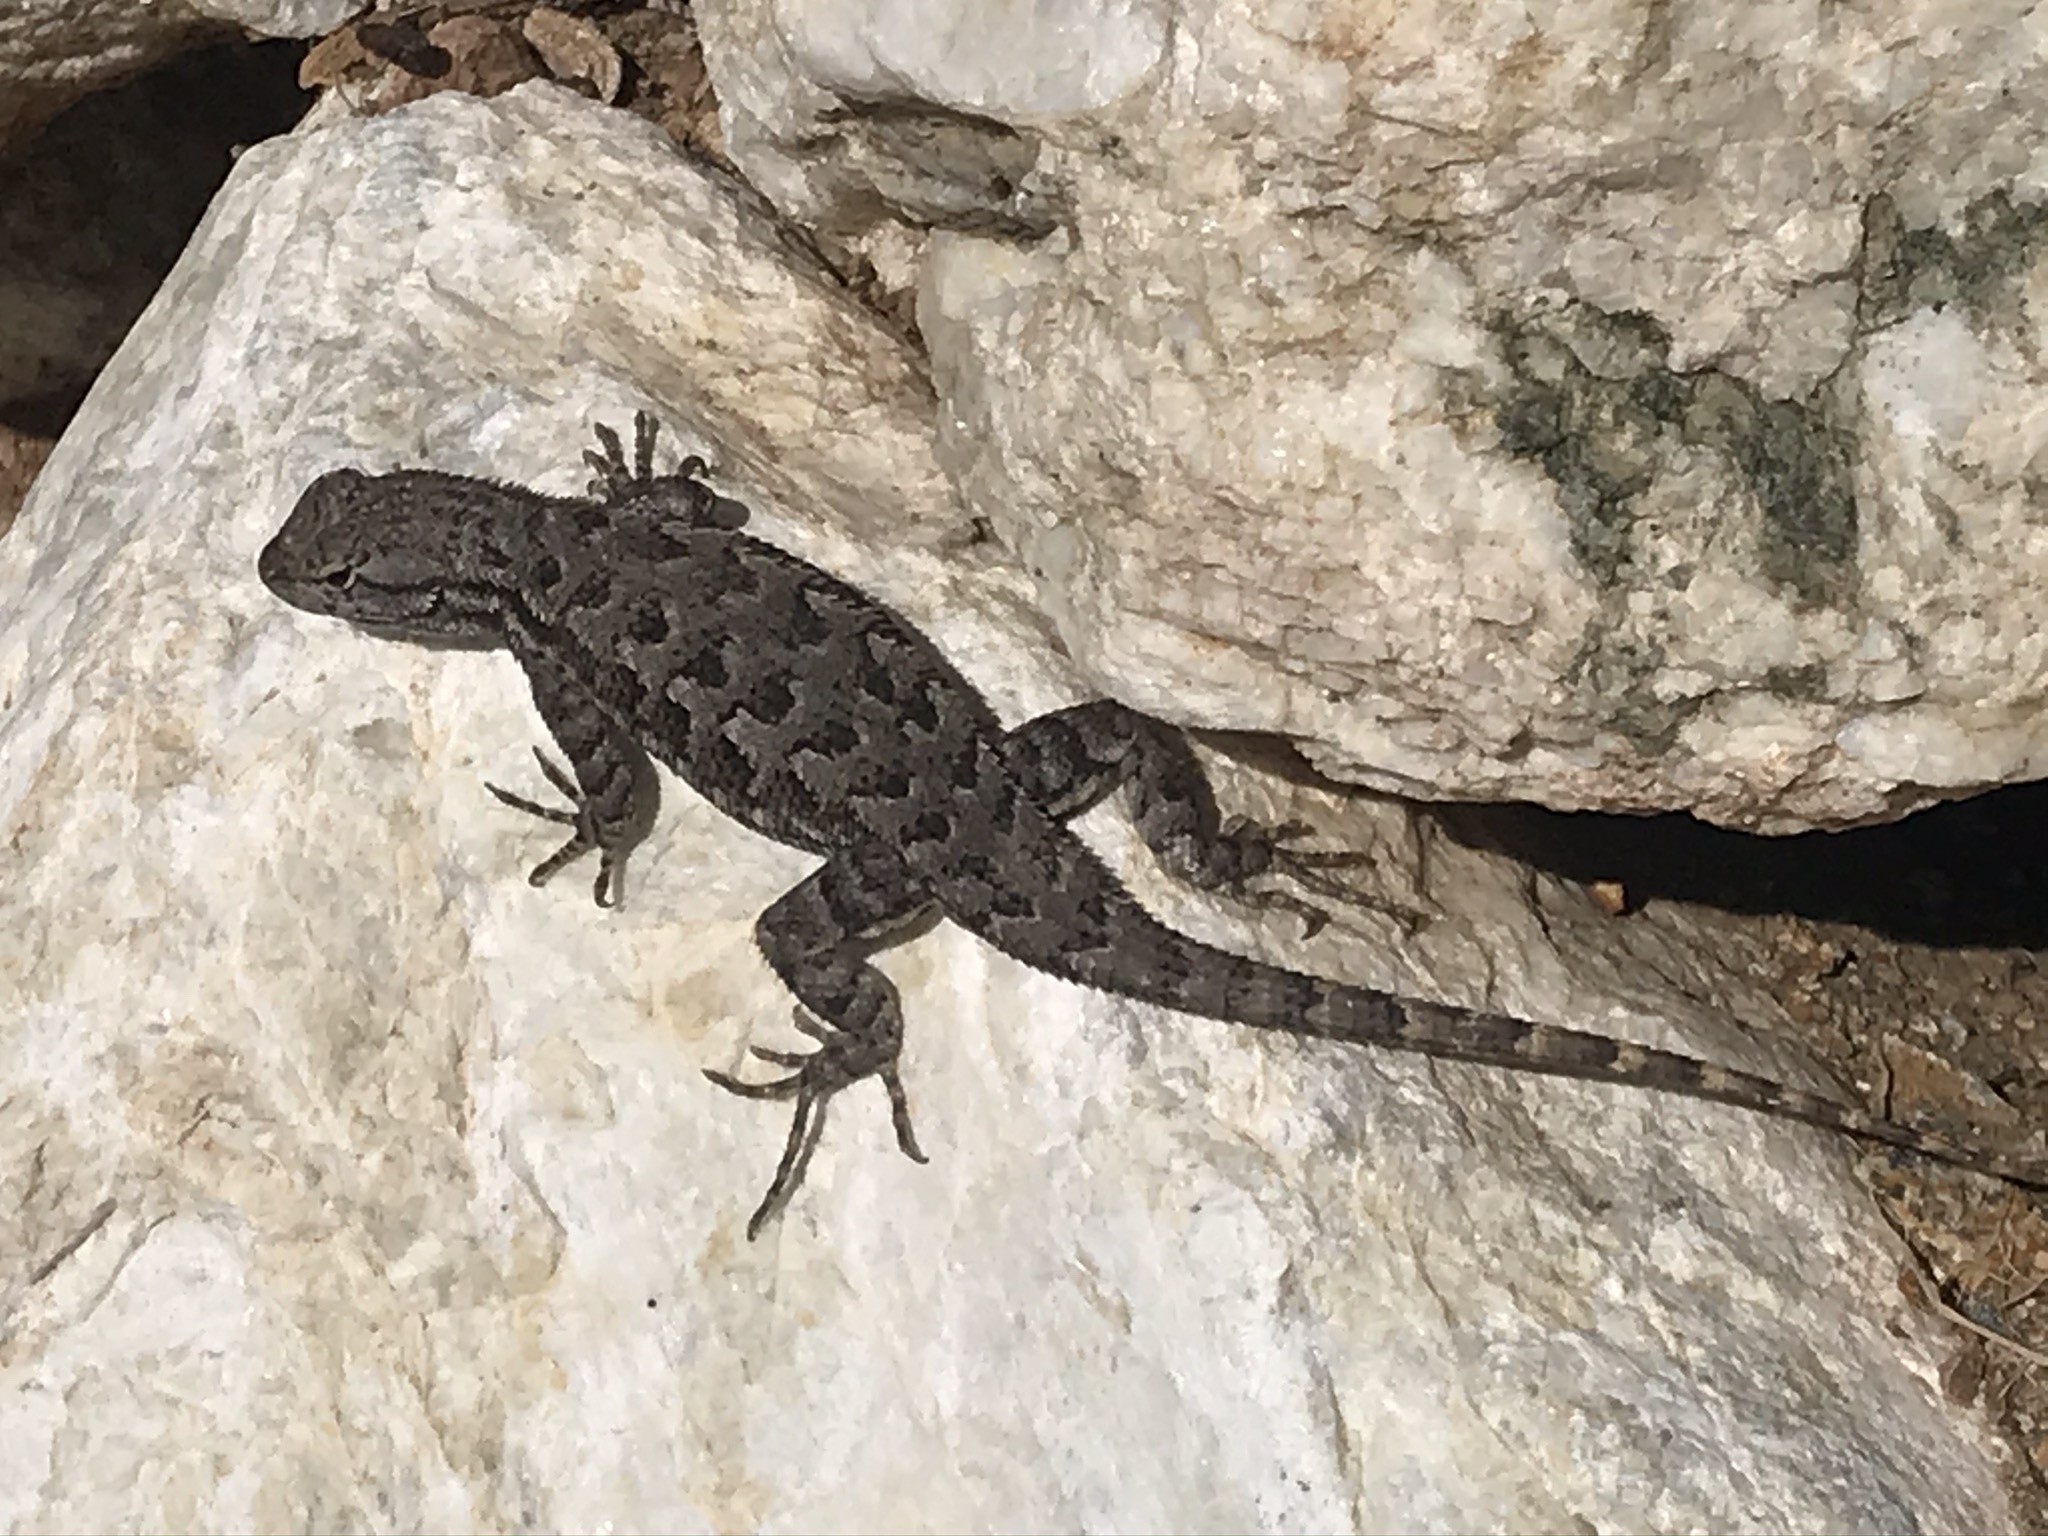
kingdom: Animalia
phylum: Chordata
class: Squamata
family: Phrynosomatidae
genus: Sceloporus
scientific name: Sceloporus occidentalis
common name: Western fence lizard
